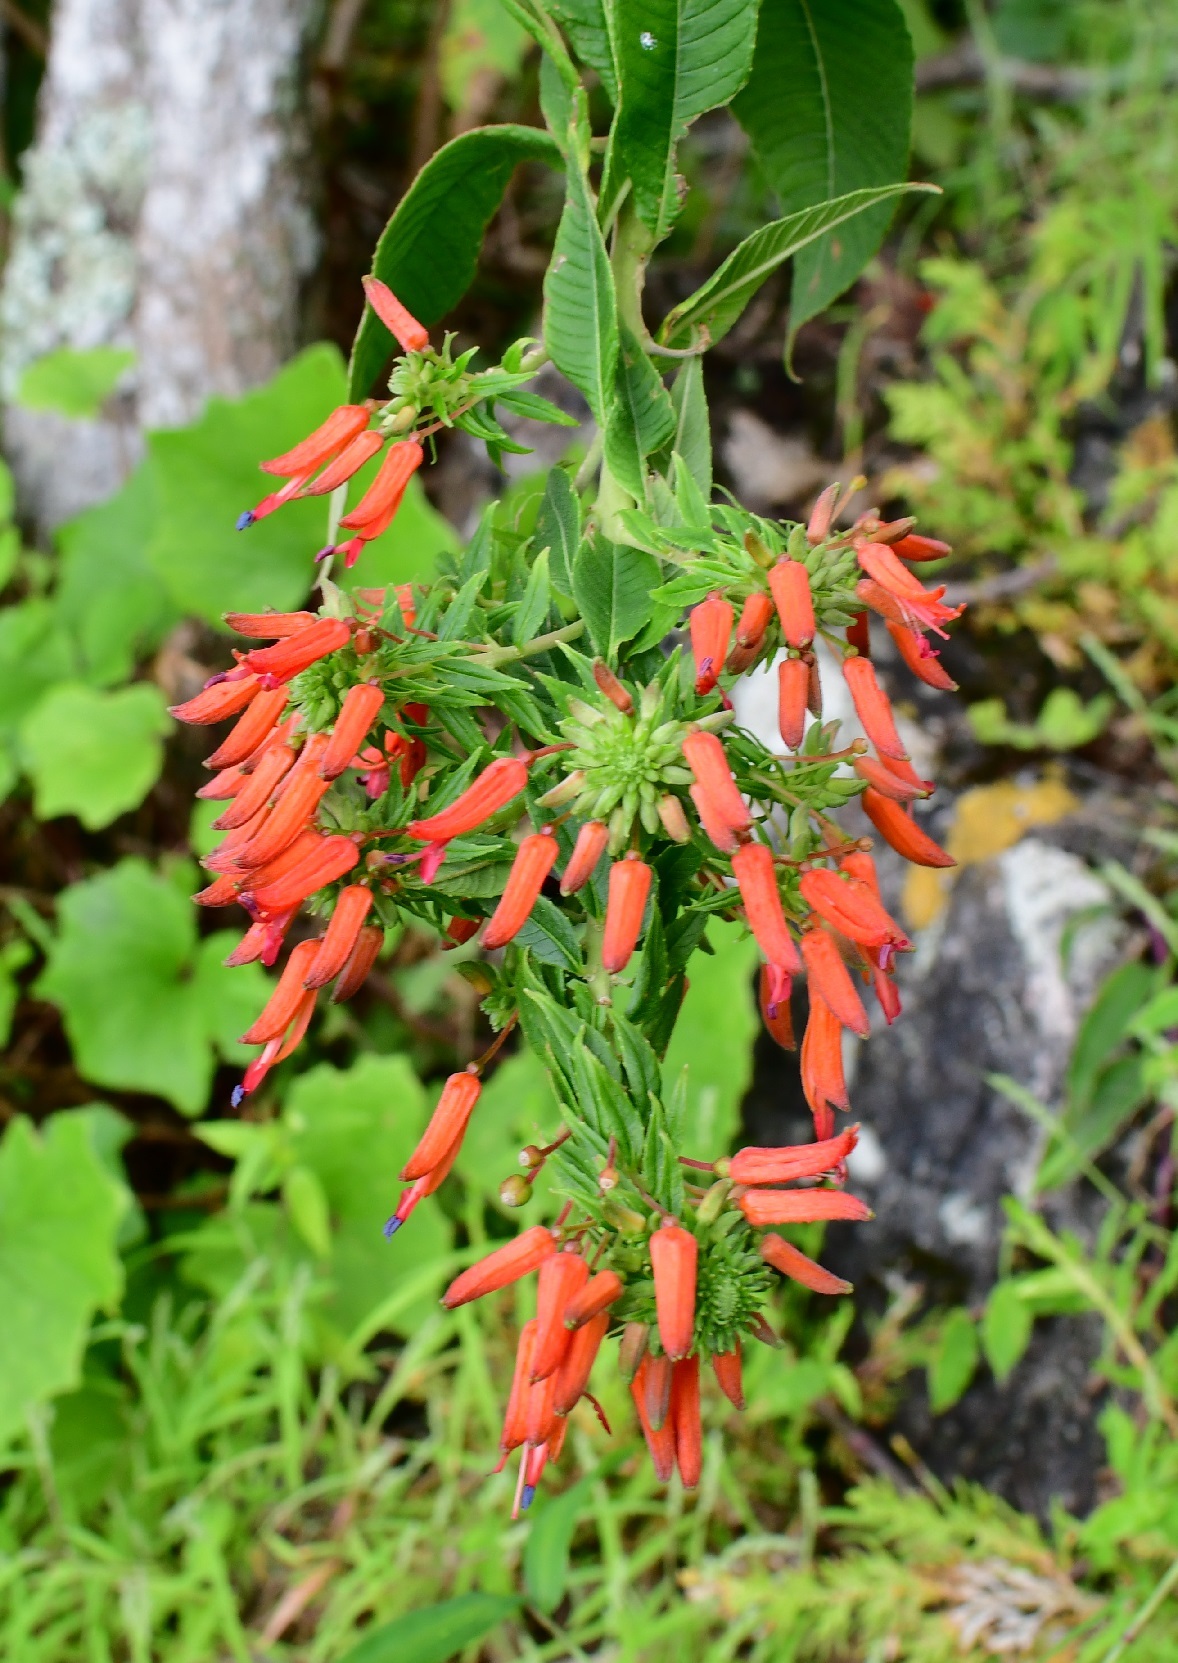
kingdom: Plantae
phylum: Tracheophyta
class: Magnoliopsida
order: Myrtales
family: Onagraceae
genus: Lopezia
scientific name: Lopezia grandiflora
